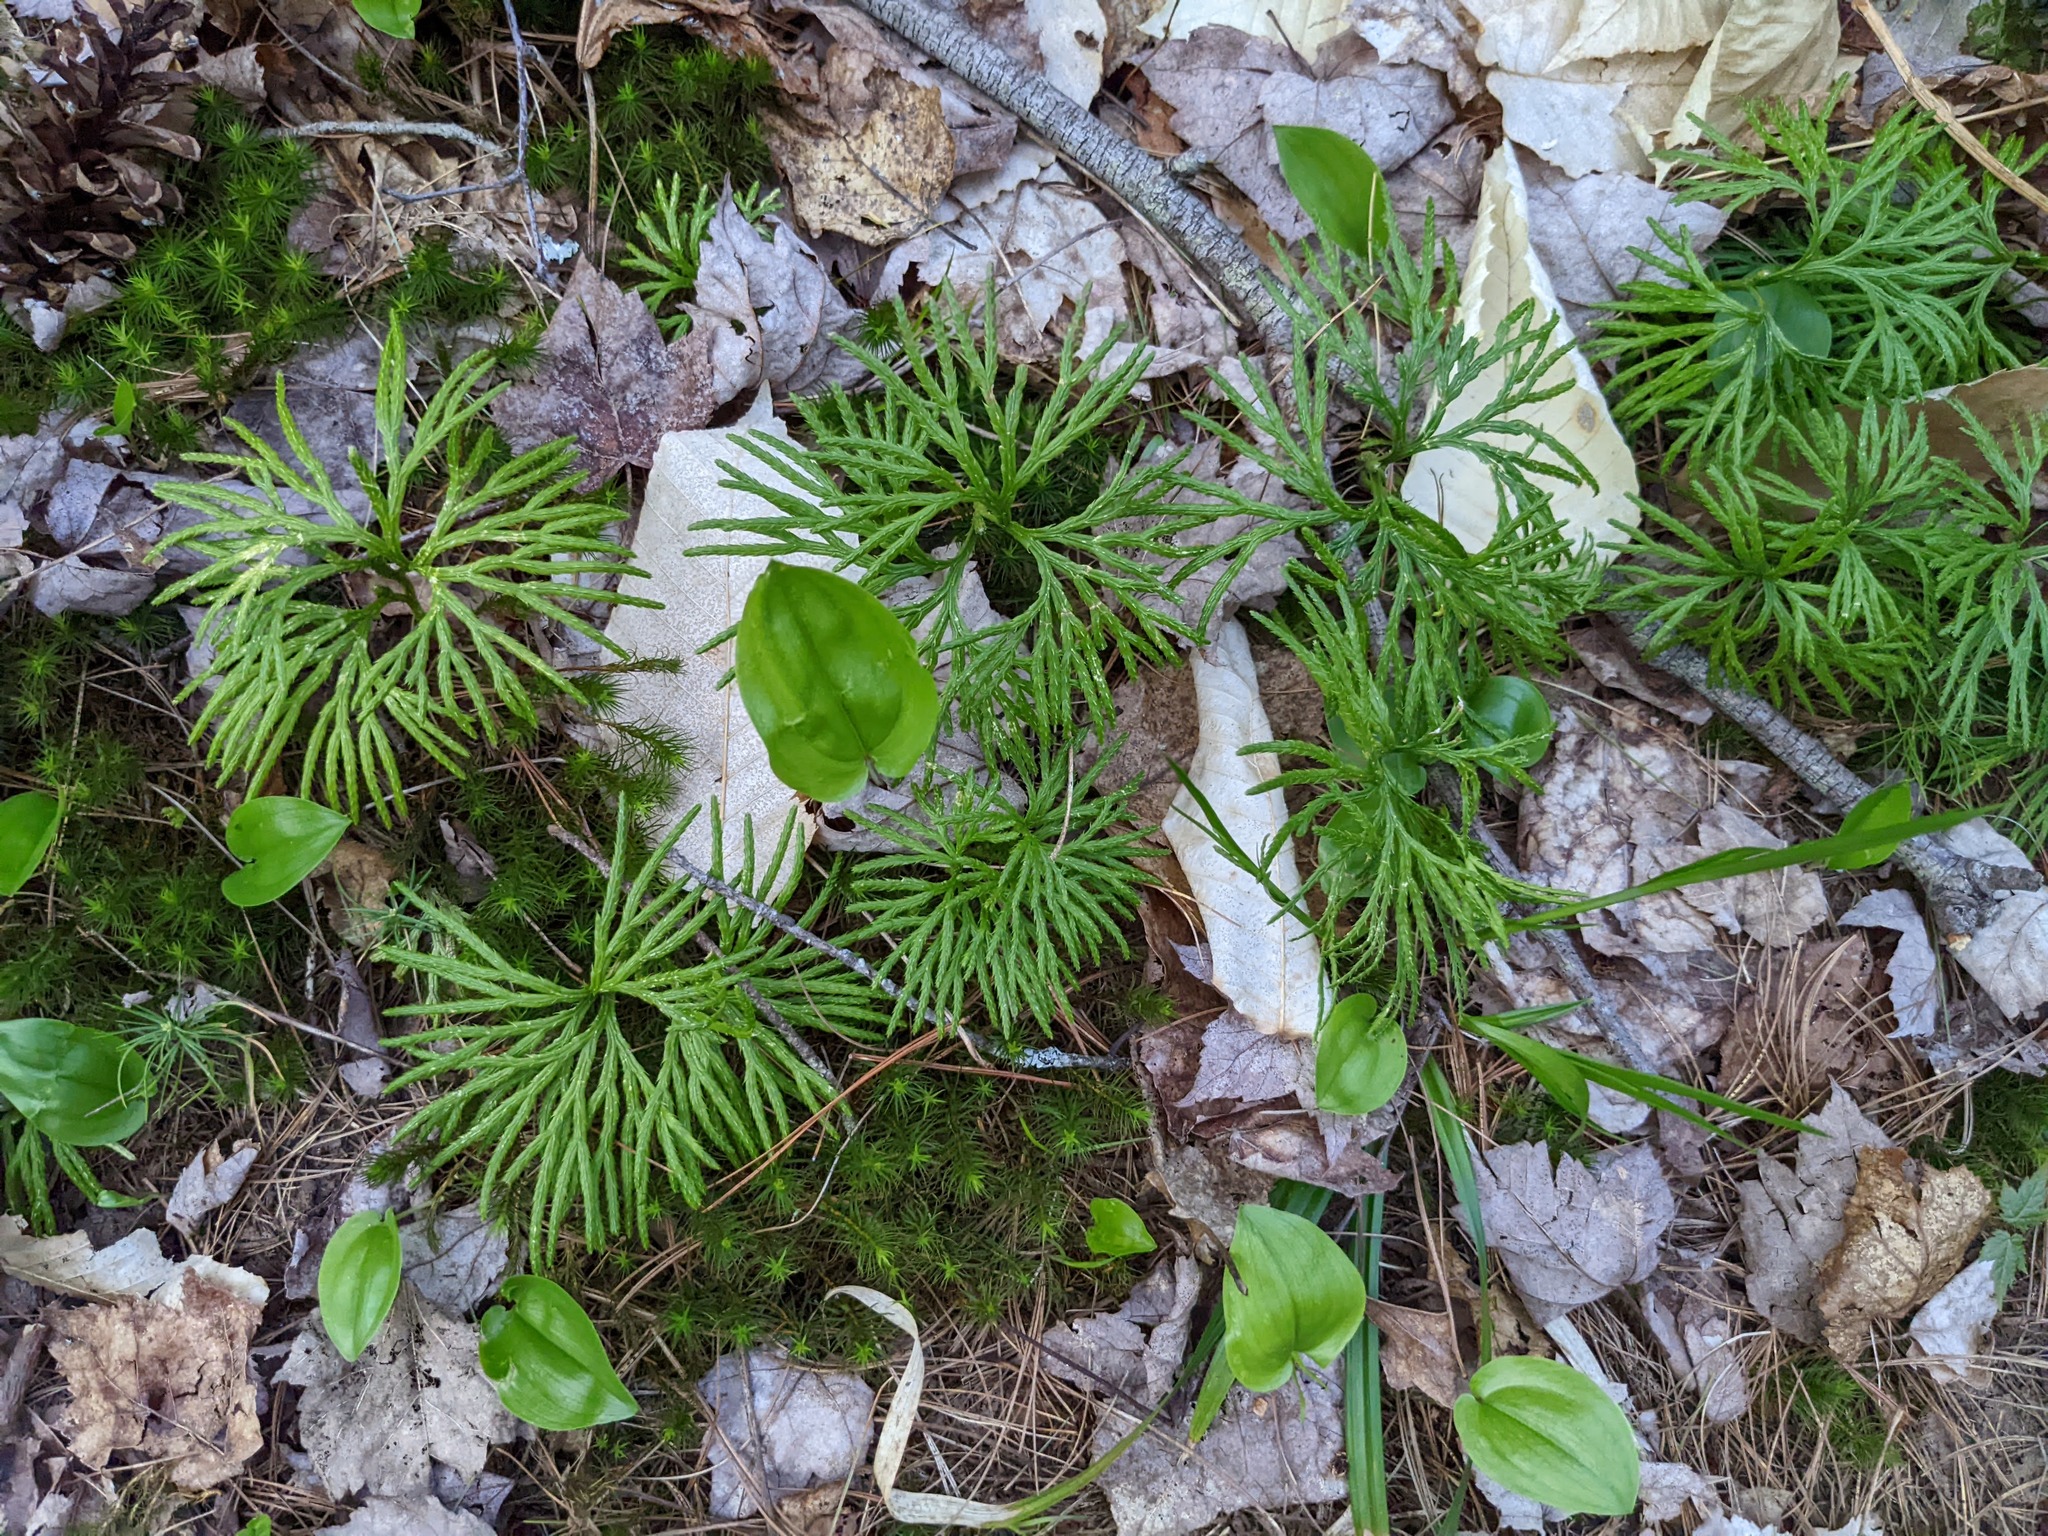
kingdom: Plantae
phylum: Tracheophyta
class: Lycopodiopsida
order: Lycopodiales
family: Lycopodiaceae
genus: Diphasiastrum
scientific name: Diphasiastrum digitatum
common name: Southern running-pine
